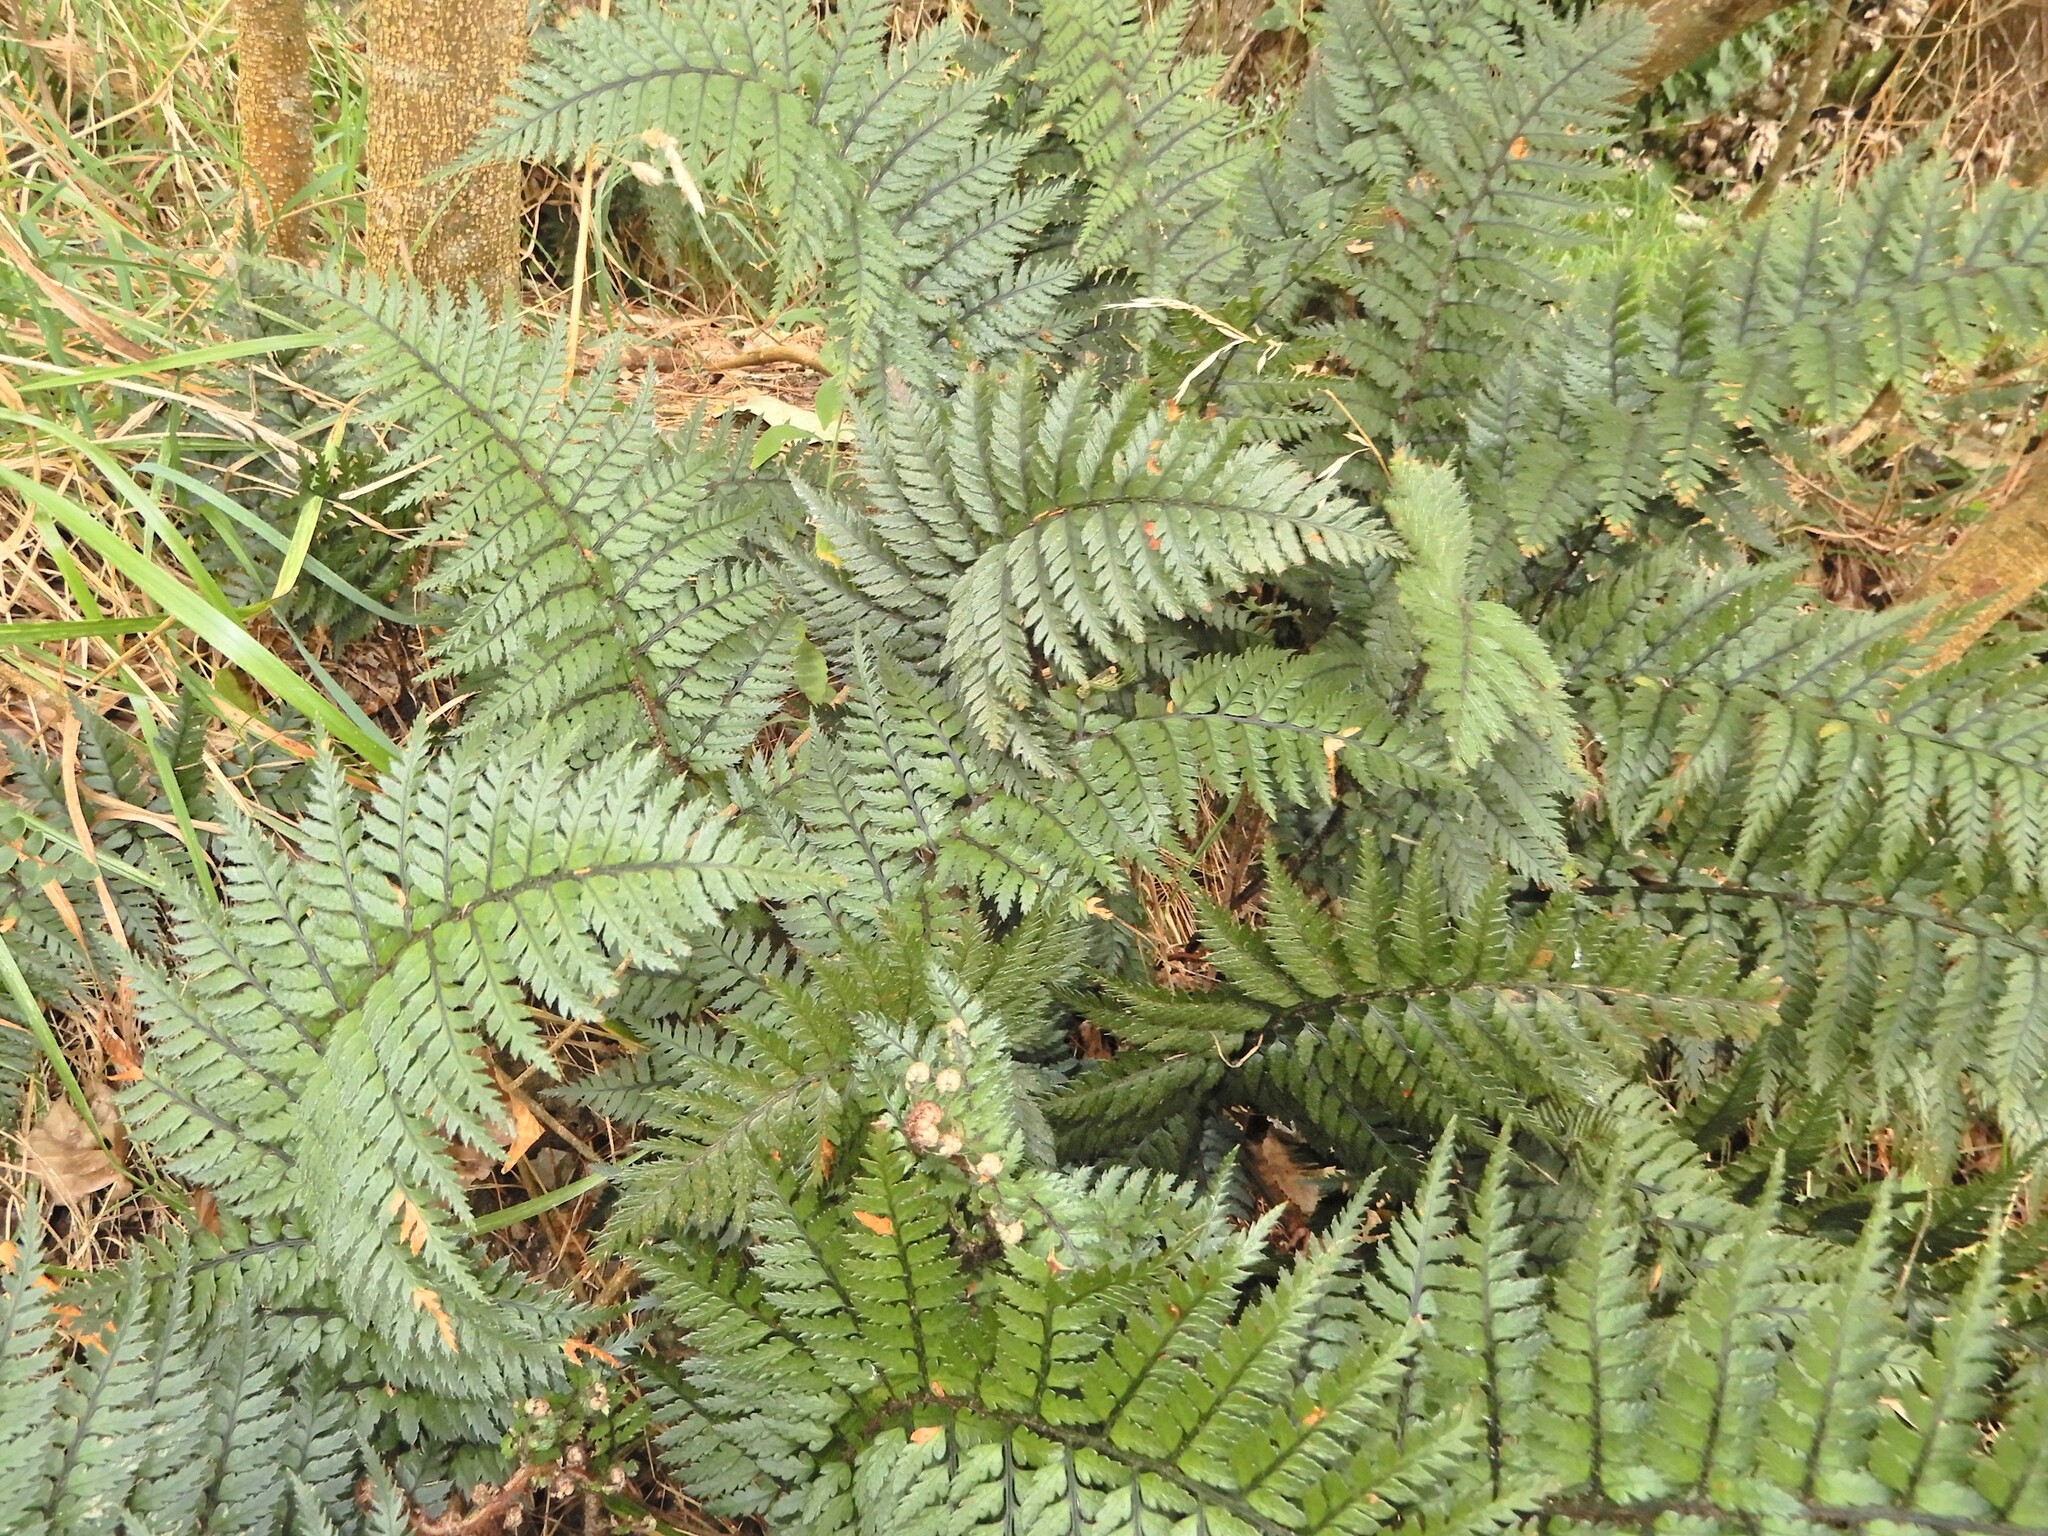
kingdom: Plantae
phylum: Tracheophyta
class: Polypodiopsida
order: Polypodiales
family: Dryopteridaceae
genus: Polystichum
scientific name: Polystichum neozelandicum
